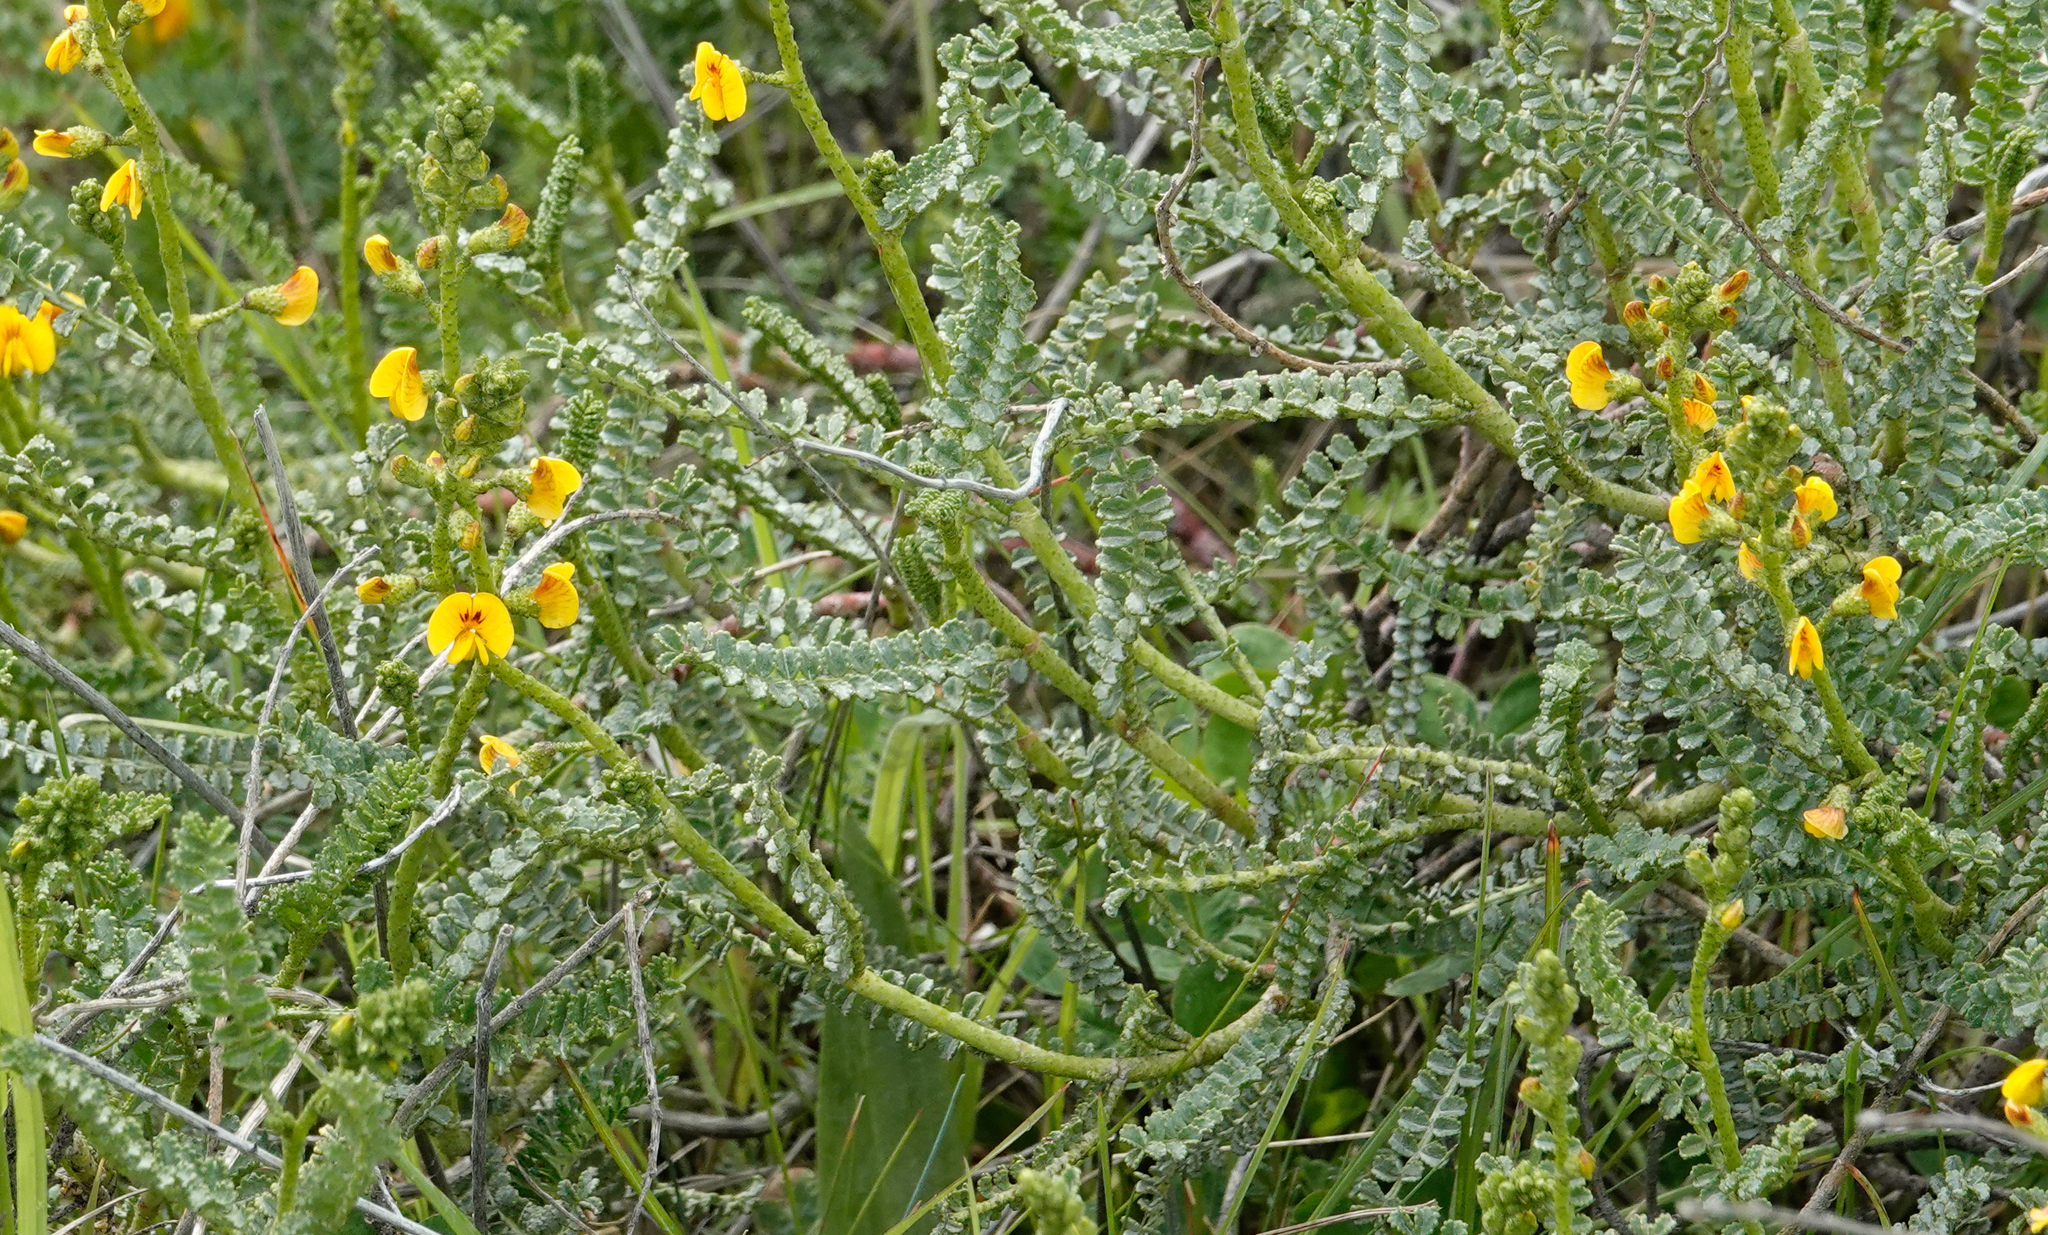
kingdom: Plantae
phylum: Tracheophyta
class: Magnoliopsida
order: Fabales
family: Fabaceae
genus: Adesmia
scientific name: Adesmia boronioides
